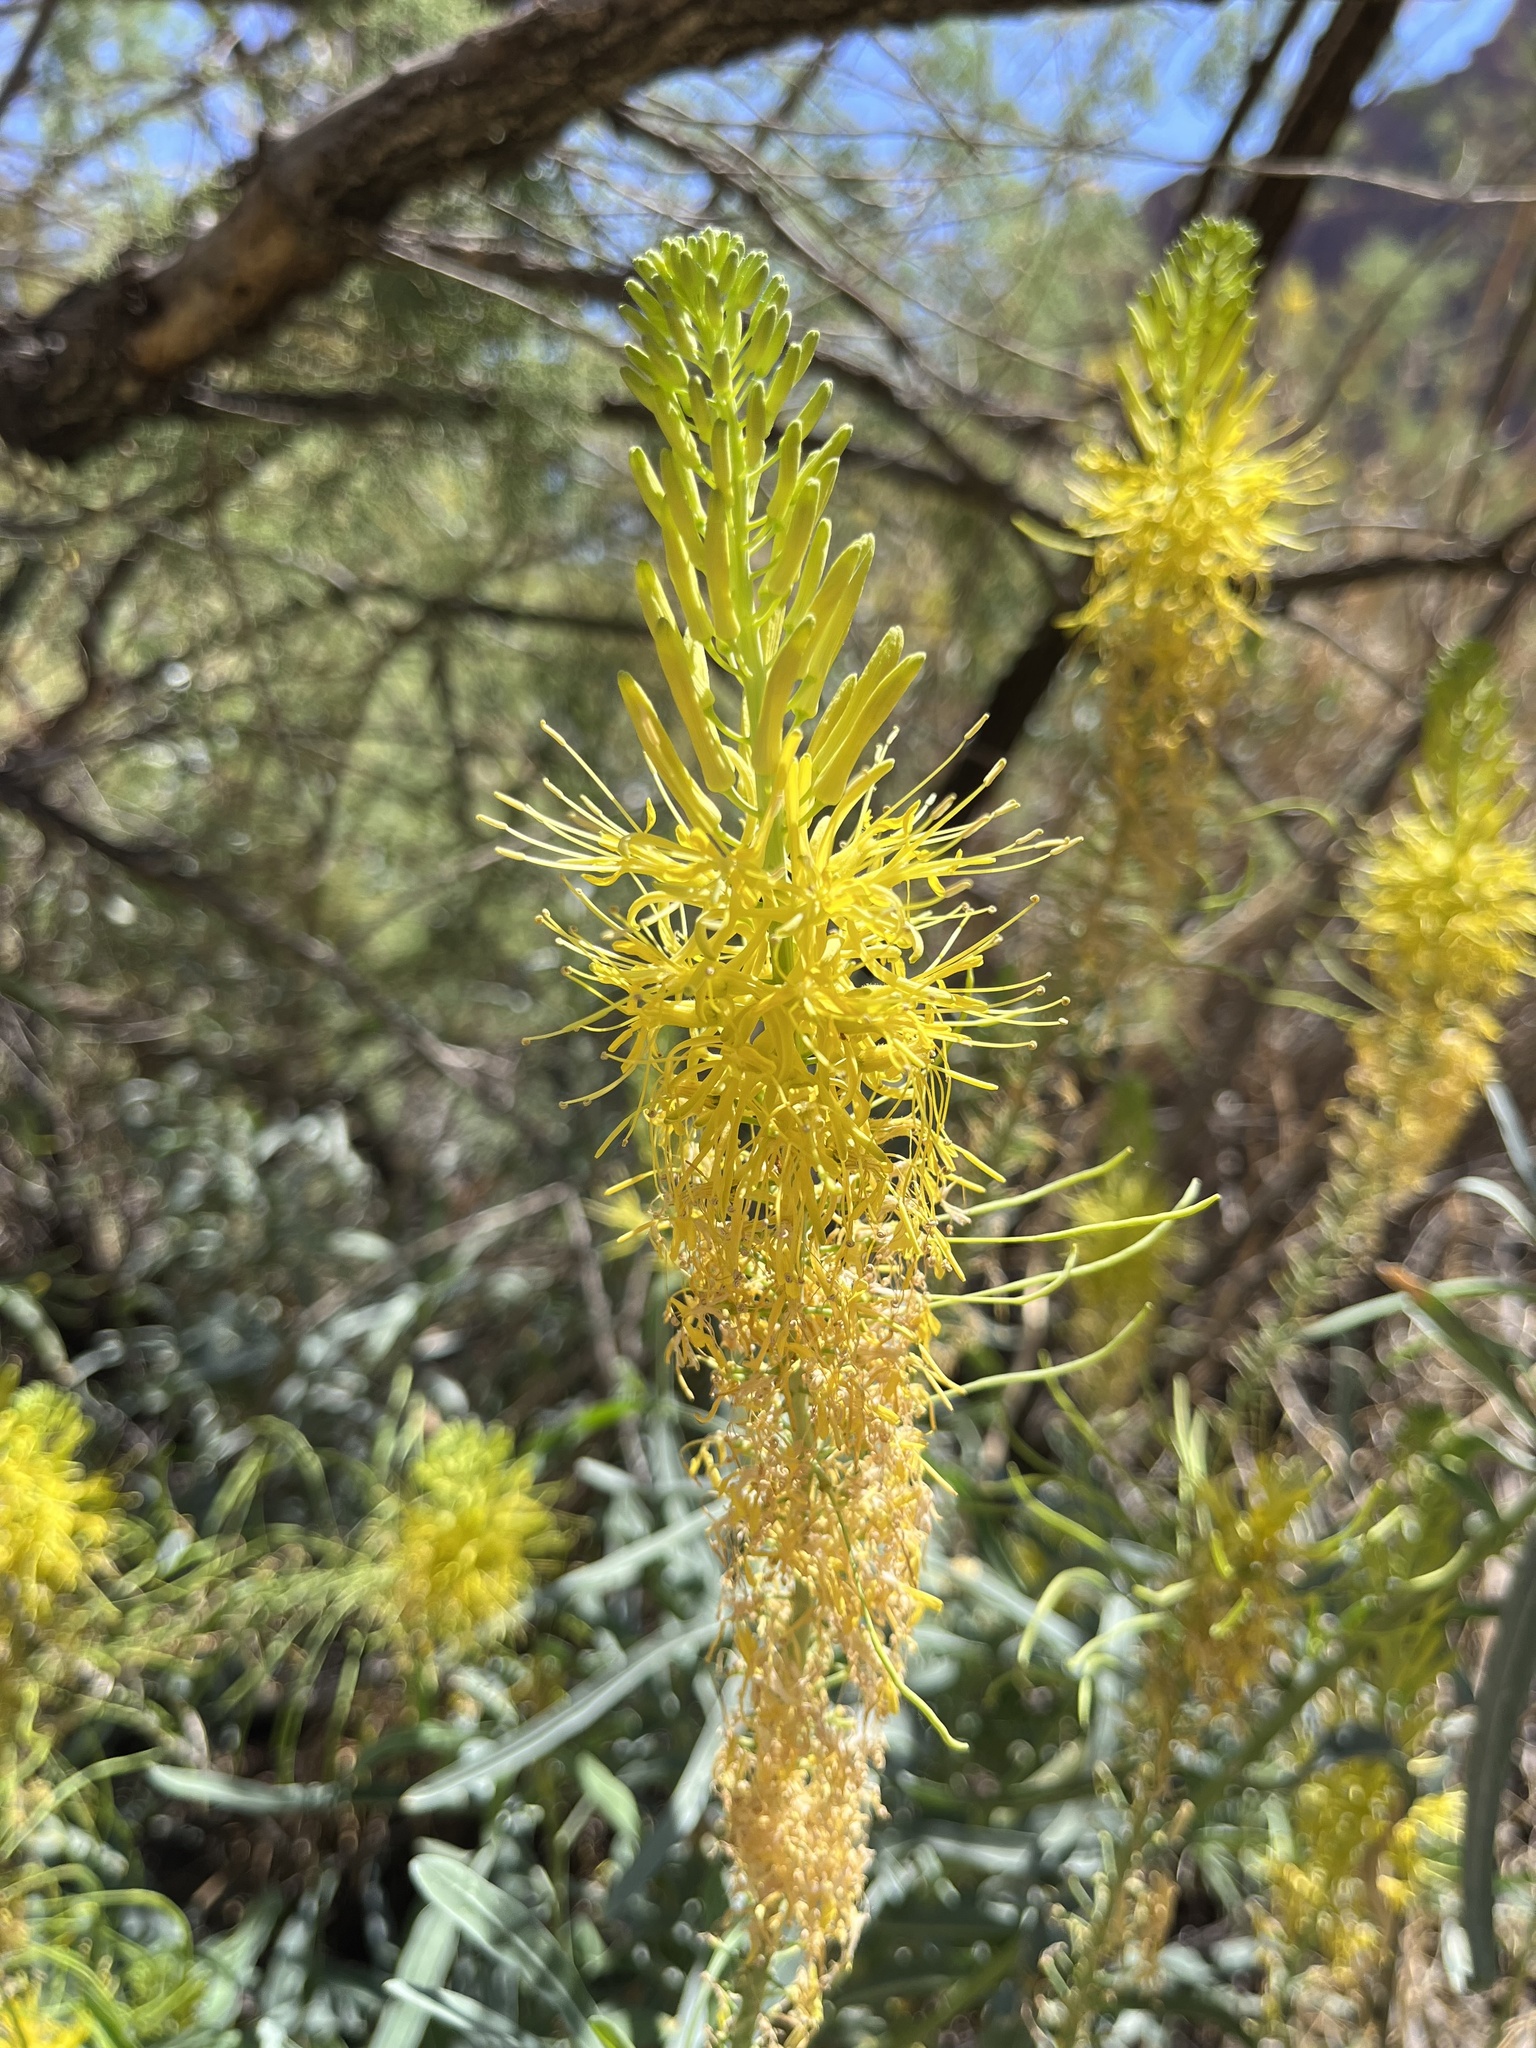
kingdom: Plantae
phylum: Tracheophyta
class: Magnoliopsida
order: Brassicales
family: Brassicaceae
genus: Stanleya
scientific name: Stanleya pinnata
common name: Prince's-plume
